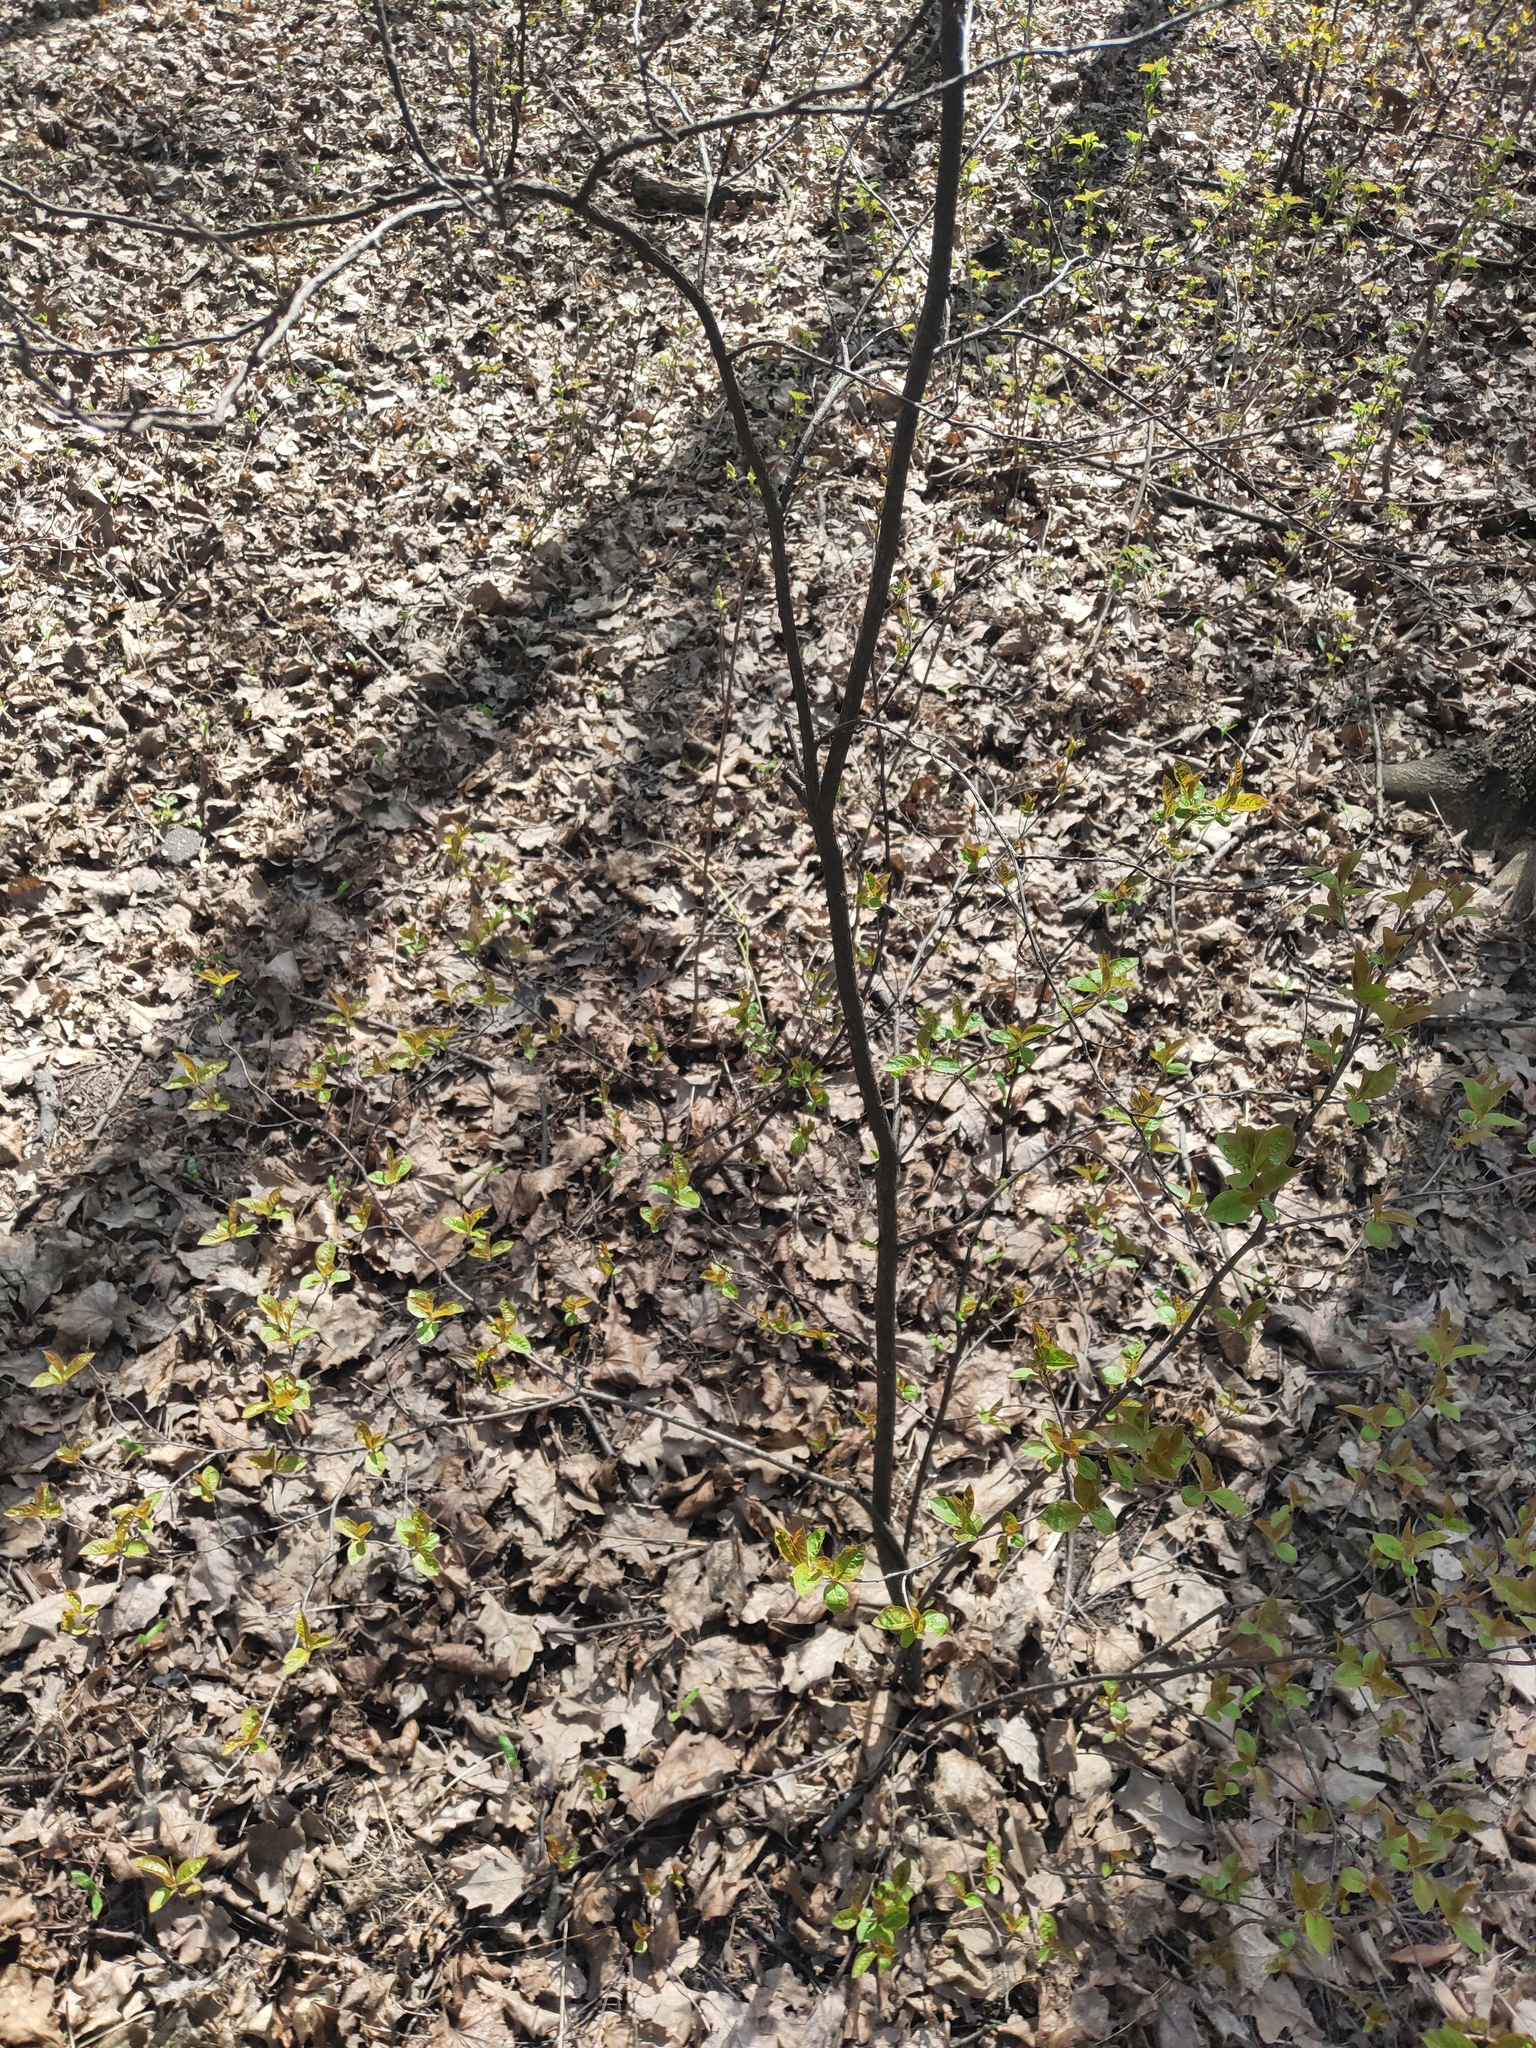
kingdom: Plantae
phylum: Tracheophyta
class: Magnoliopsida
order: Rosales
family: Rosaceae
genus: Sorbaronia
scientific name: Sorbaronia arsenii
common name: Arsène's mountain-ash
